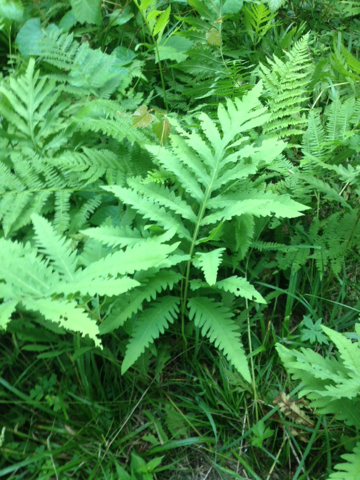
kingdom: Plantae
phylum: Tracheophyta
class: Polypodiopsida
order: Polypodiales
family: Onocleaceae
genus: Onoclea
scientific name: Onoclea sensibilis
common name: Sensitive fern
